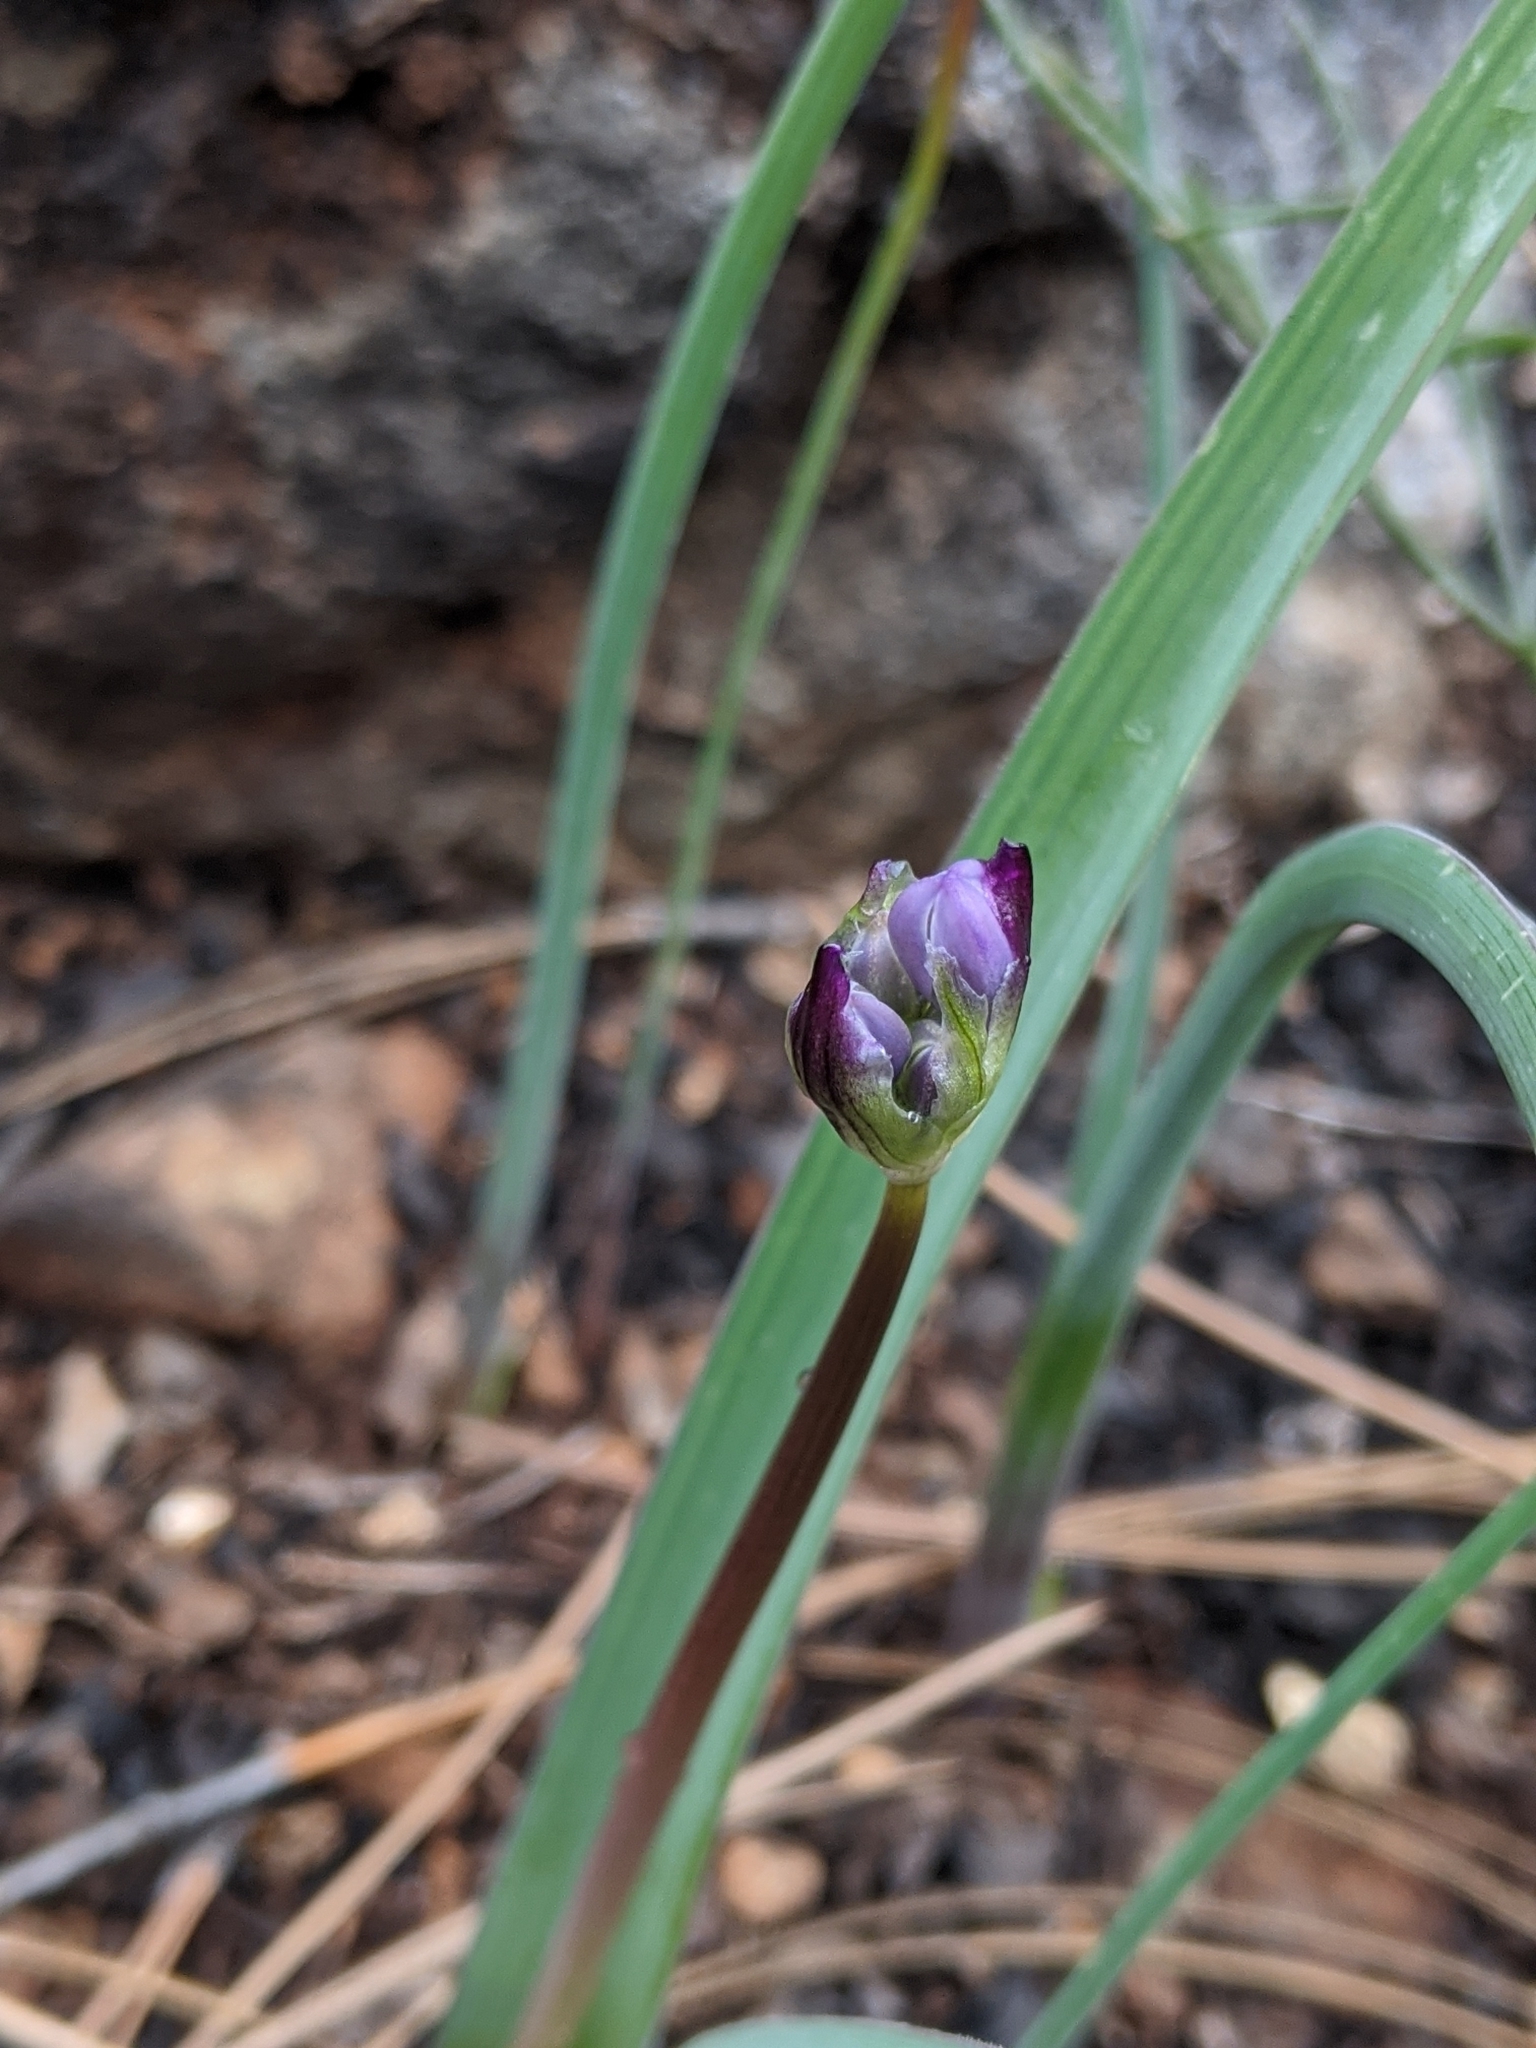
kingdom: Plantae
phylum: Tracheophyta
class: Liliopsida
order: Asparagales
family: Asparagaceae
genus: Dipterostemon
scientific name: Dipterostemon capitatus
